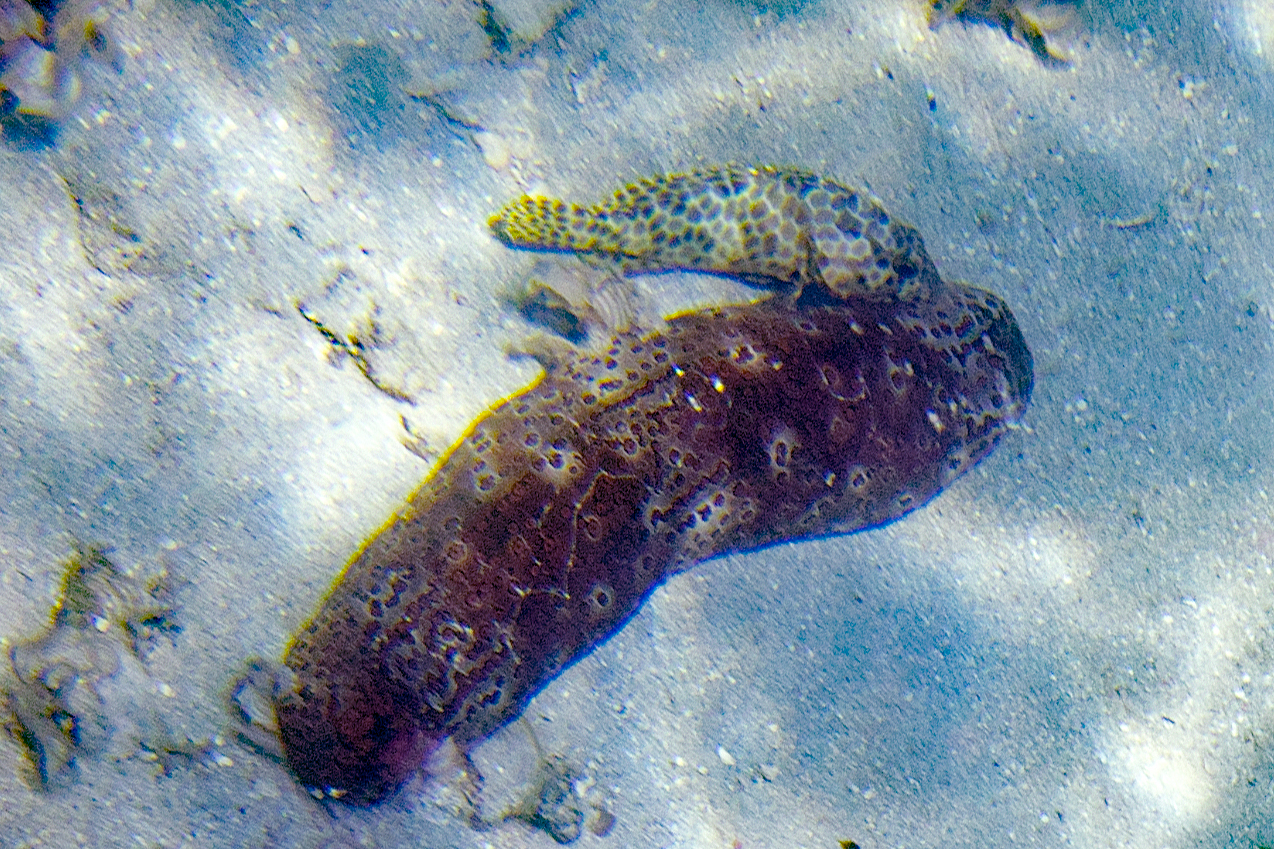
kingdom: Animalia
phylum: Echinodermata
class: Holothuroidea
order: Holothuriida
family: Holothuriidae
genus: Bohadschia
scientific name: Bohadschia argus
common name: Leopardfish
